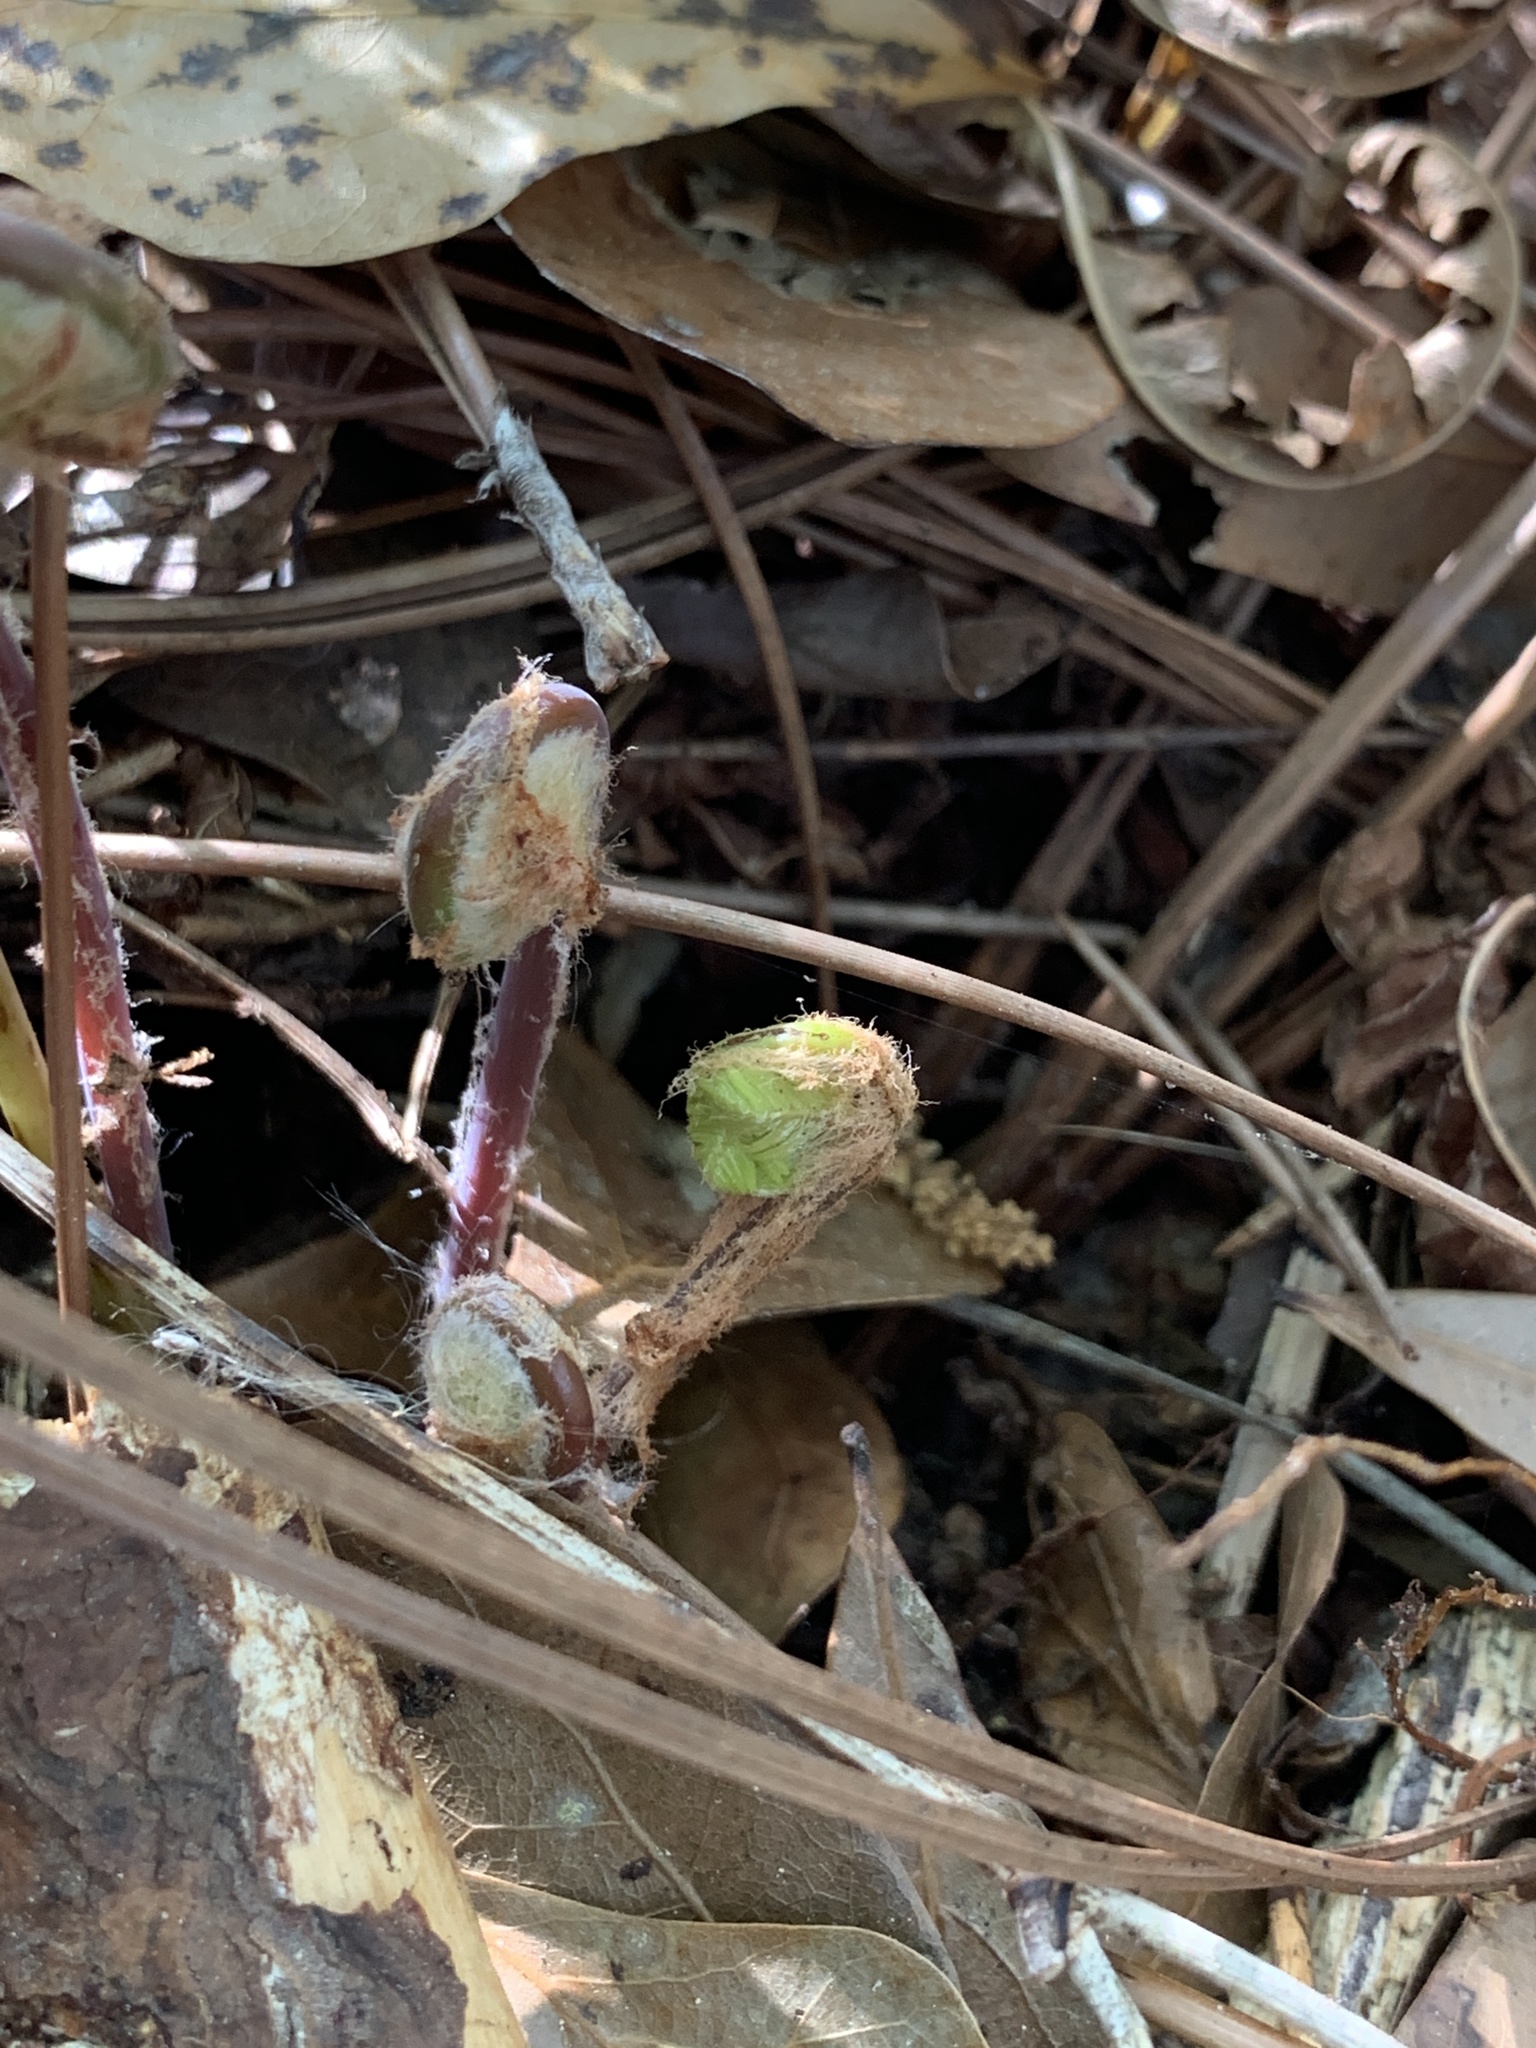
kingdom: Plantae
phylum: Tracheophyta
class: Polypodiopsida
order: Osmundales
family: Osmundaceae
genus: Osmunda
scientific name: Osmunda spectabilis
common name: American royal fern
